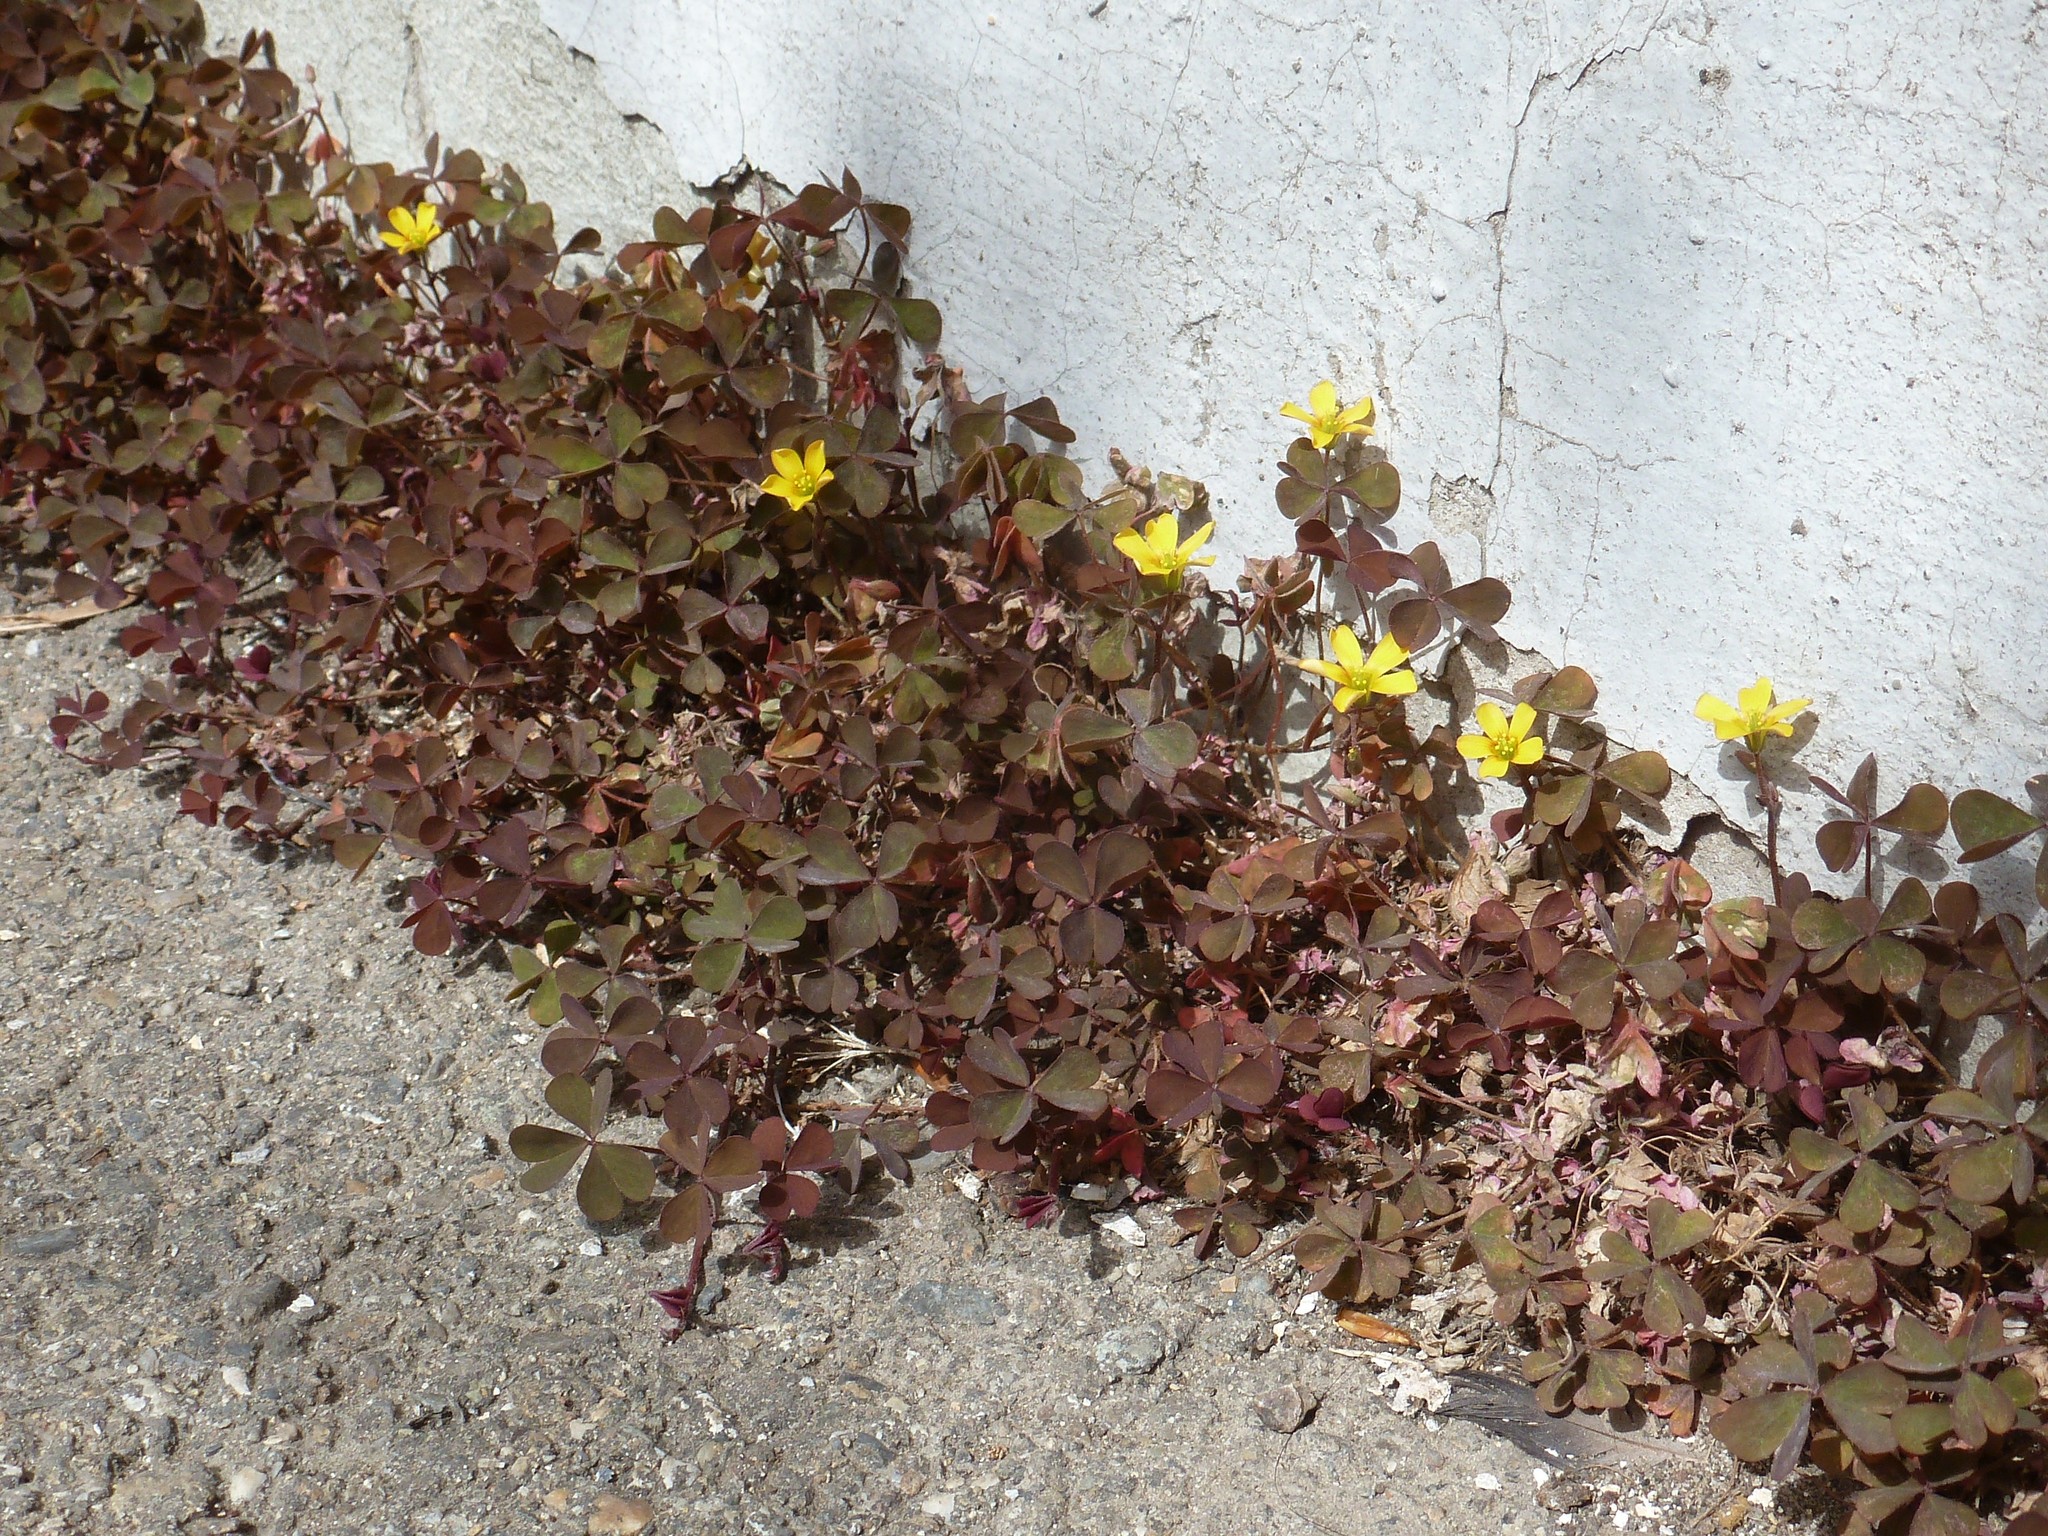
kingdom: Plantae
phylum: Tracheophyta
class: Magnoliopsida
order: Oxalidales
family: Oxalidaceae
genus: Oxalis
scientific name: Oxalis corniculata
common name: Procumbent yellow-sorrel
